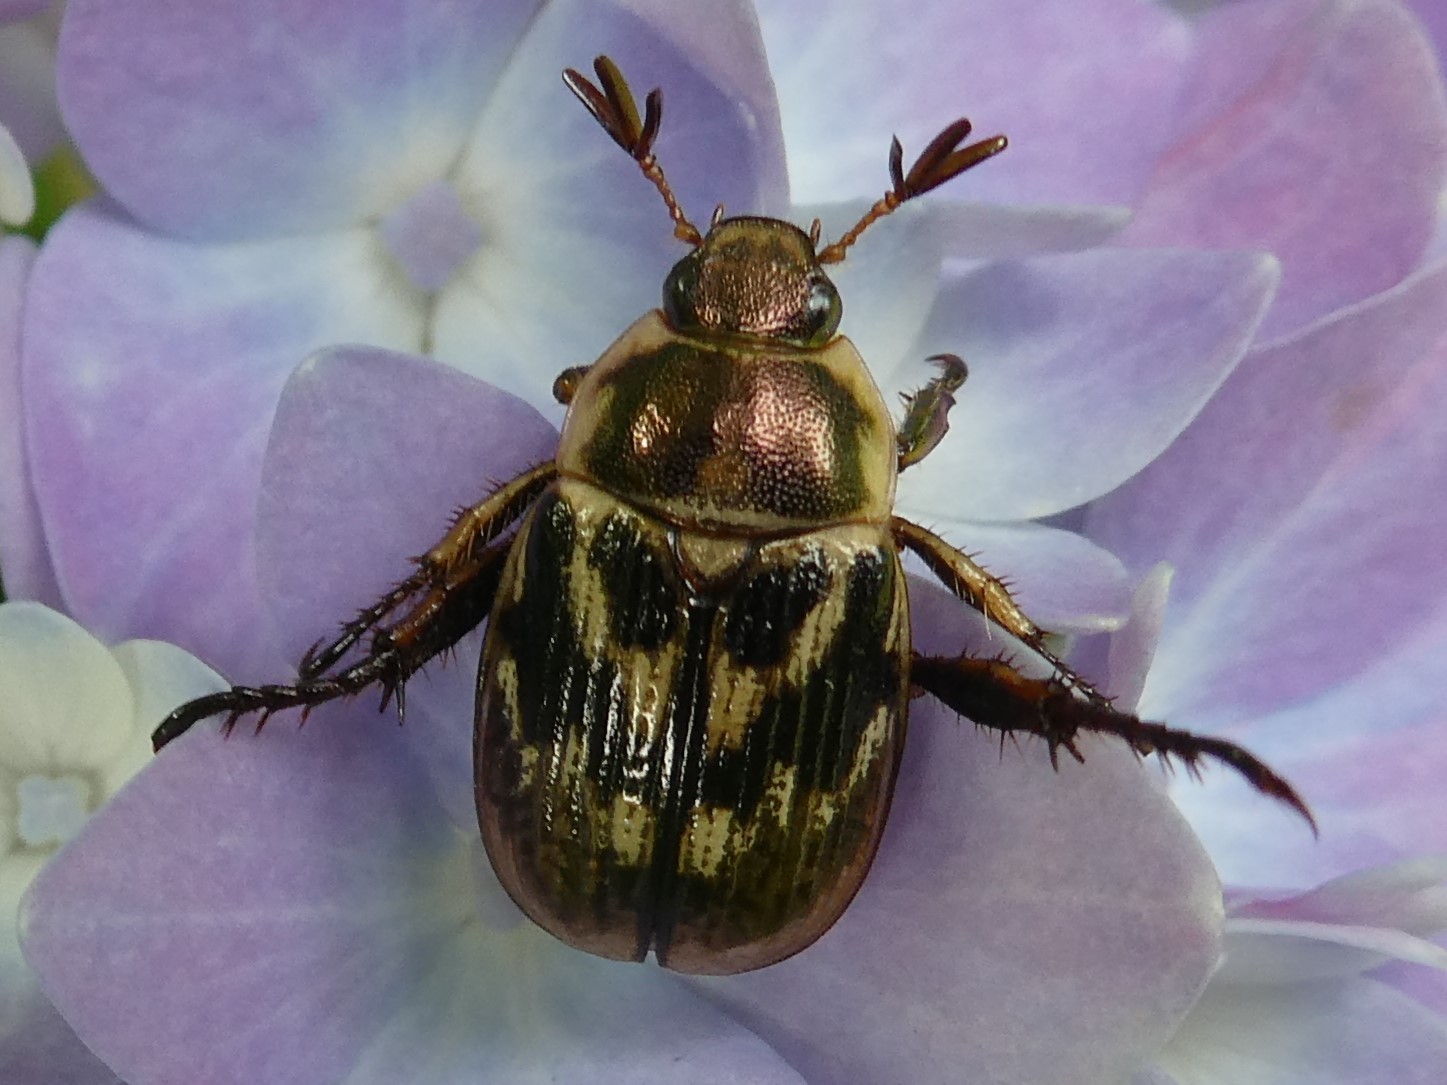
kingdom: Animalia
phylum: Arthropoda
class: Insecta
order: Coleoptera
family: Scarabaeidae
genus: Exomala
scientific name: Exomala orientalis
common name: Oriental beetle
